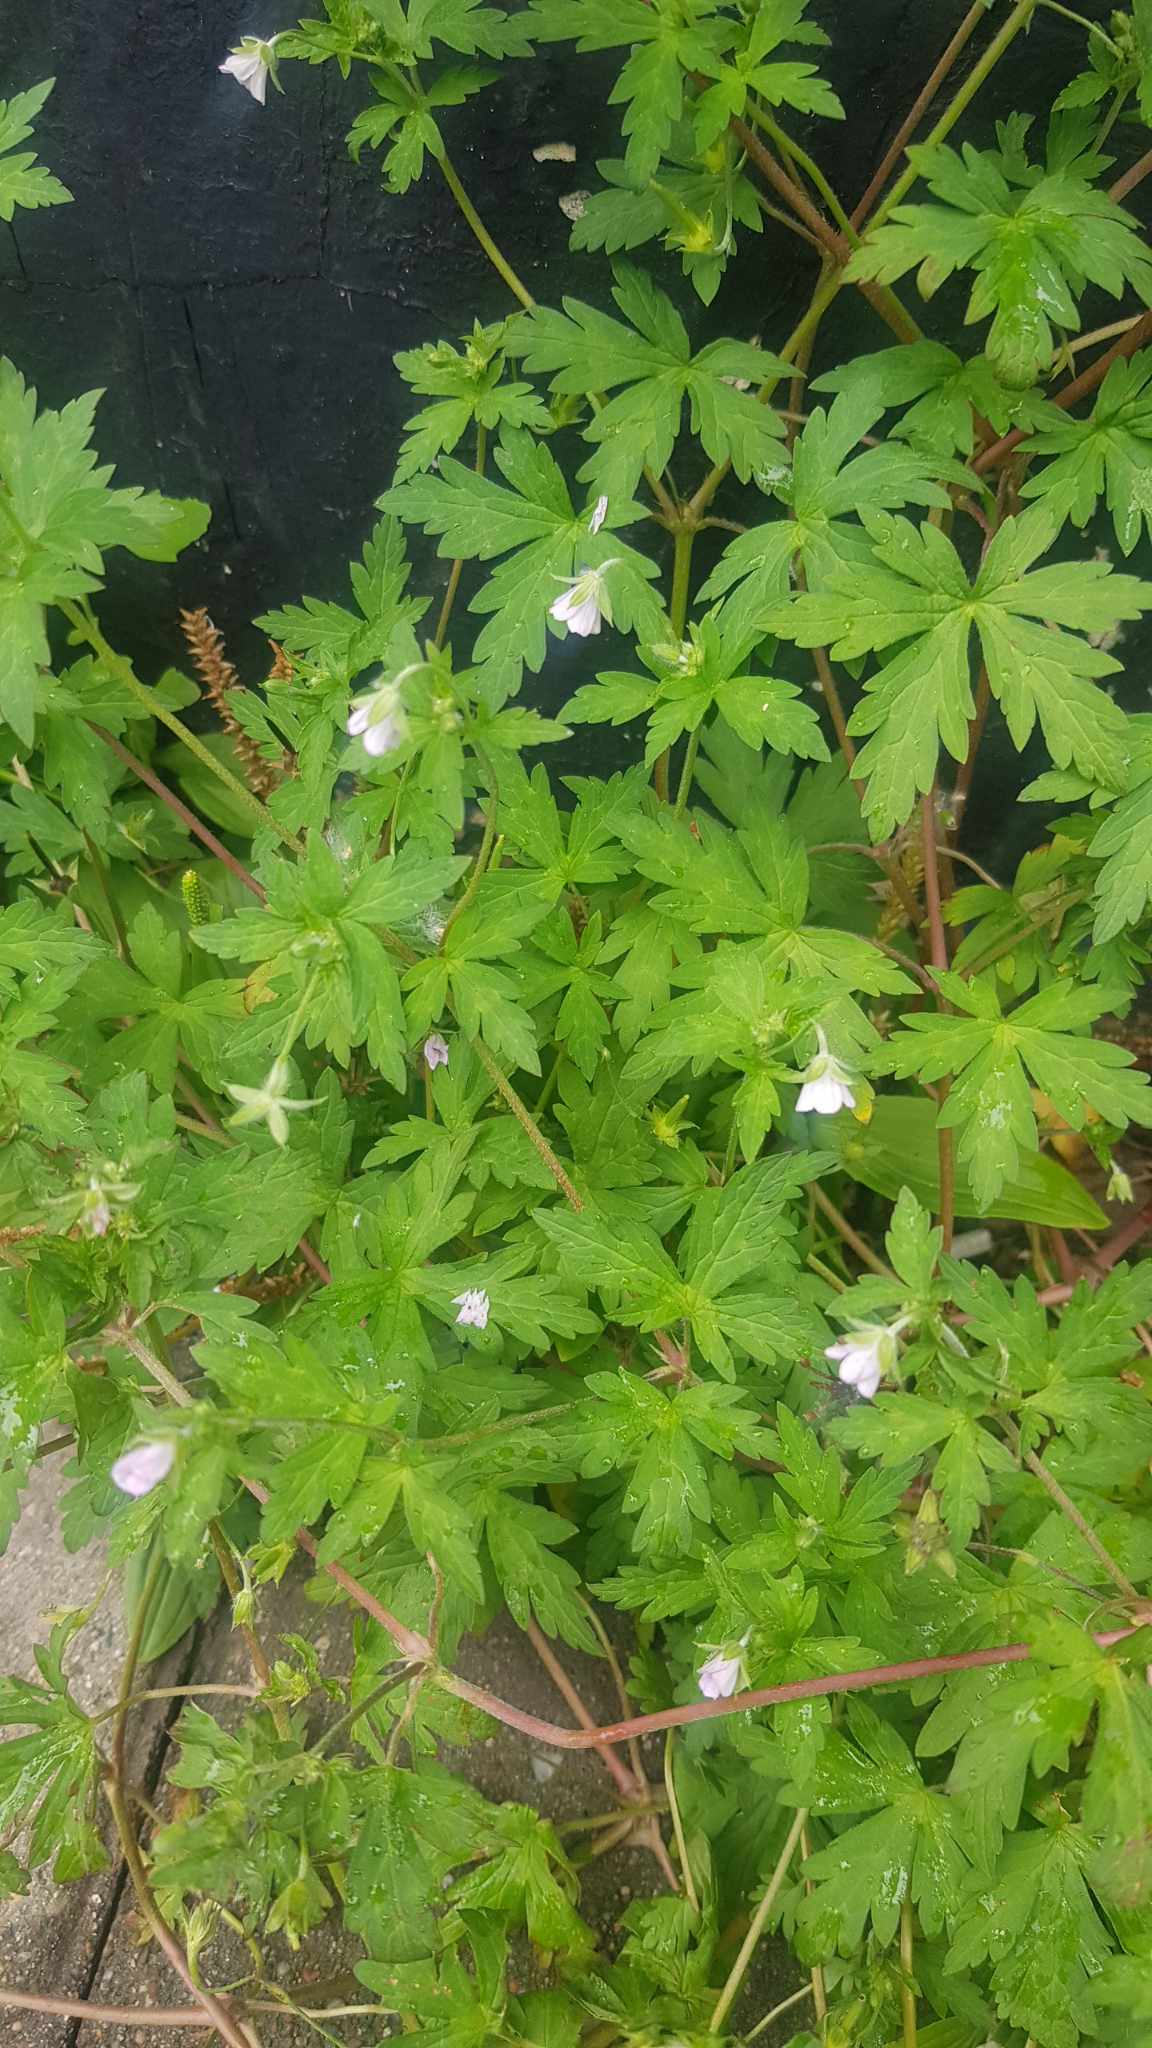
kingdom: Plantae
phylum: Tracheophyta
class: Magnoliopsida
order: Geraniales
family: Geraniaceae
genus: Geranium
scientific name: Geranium sibiricum
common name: Siberian crane's-bill
